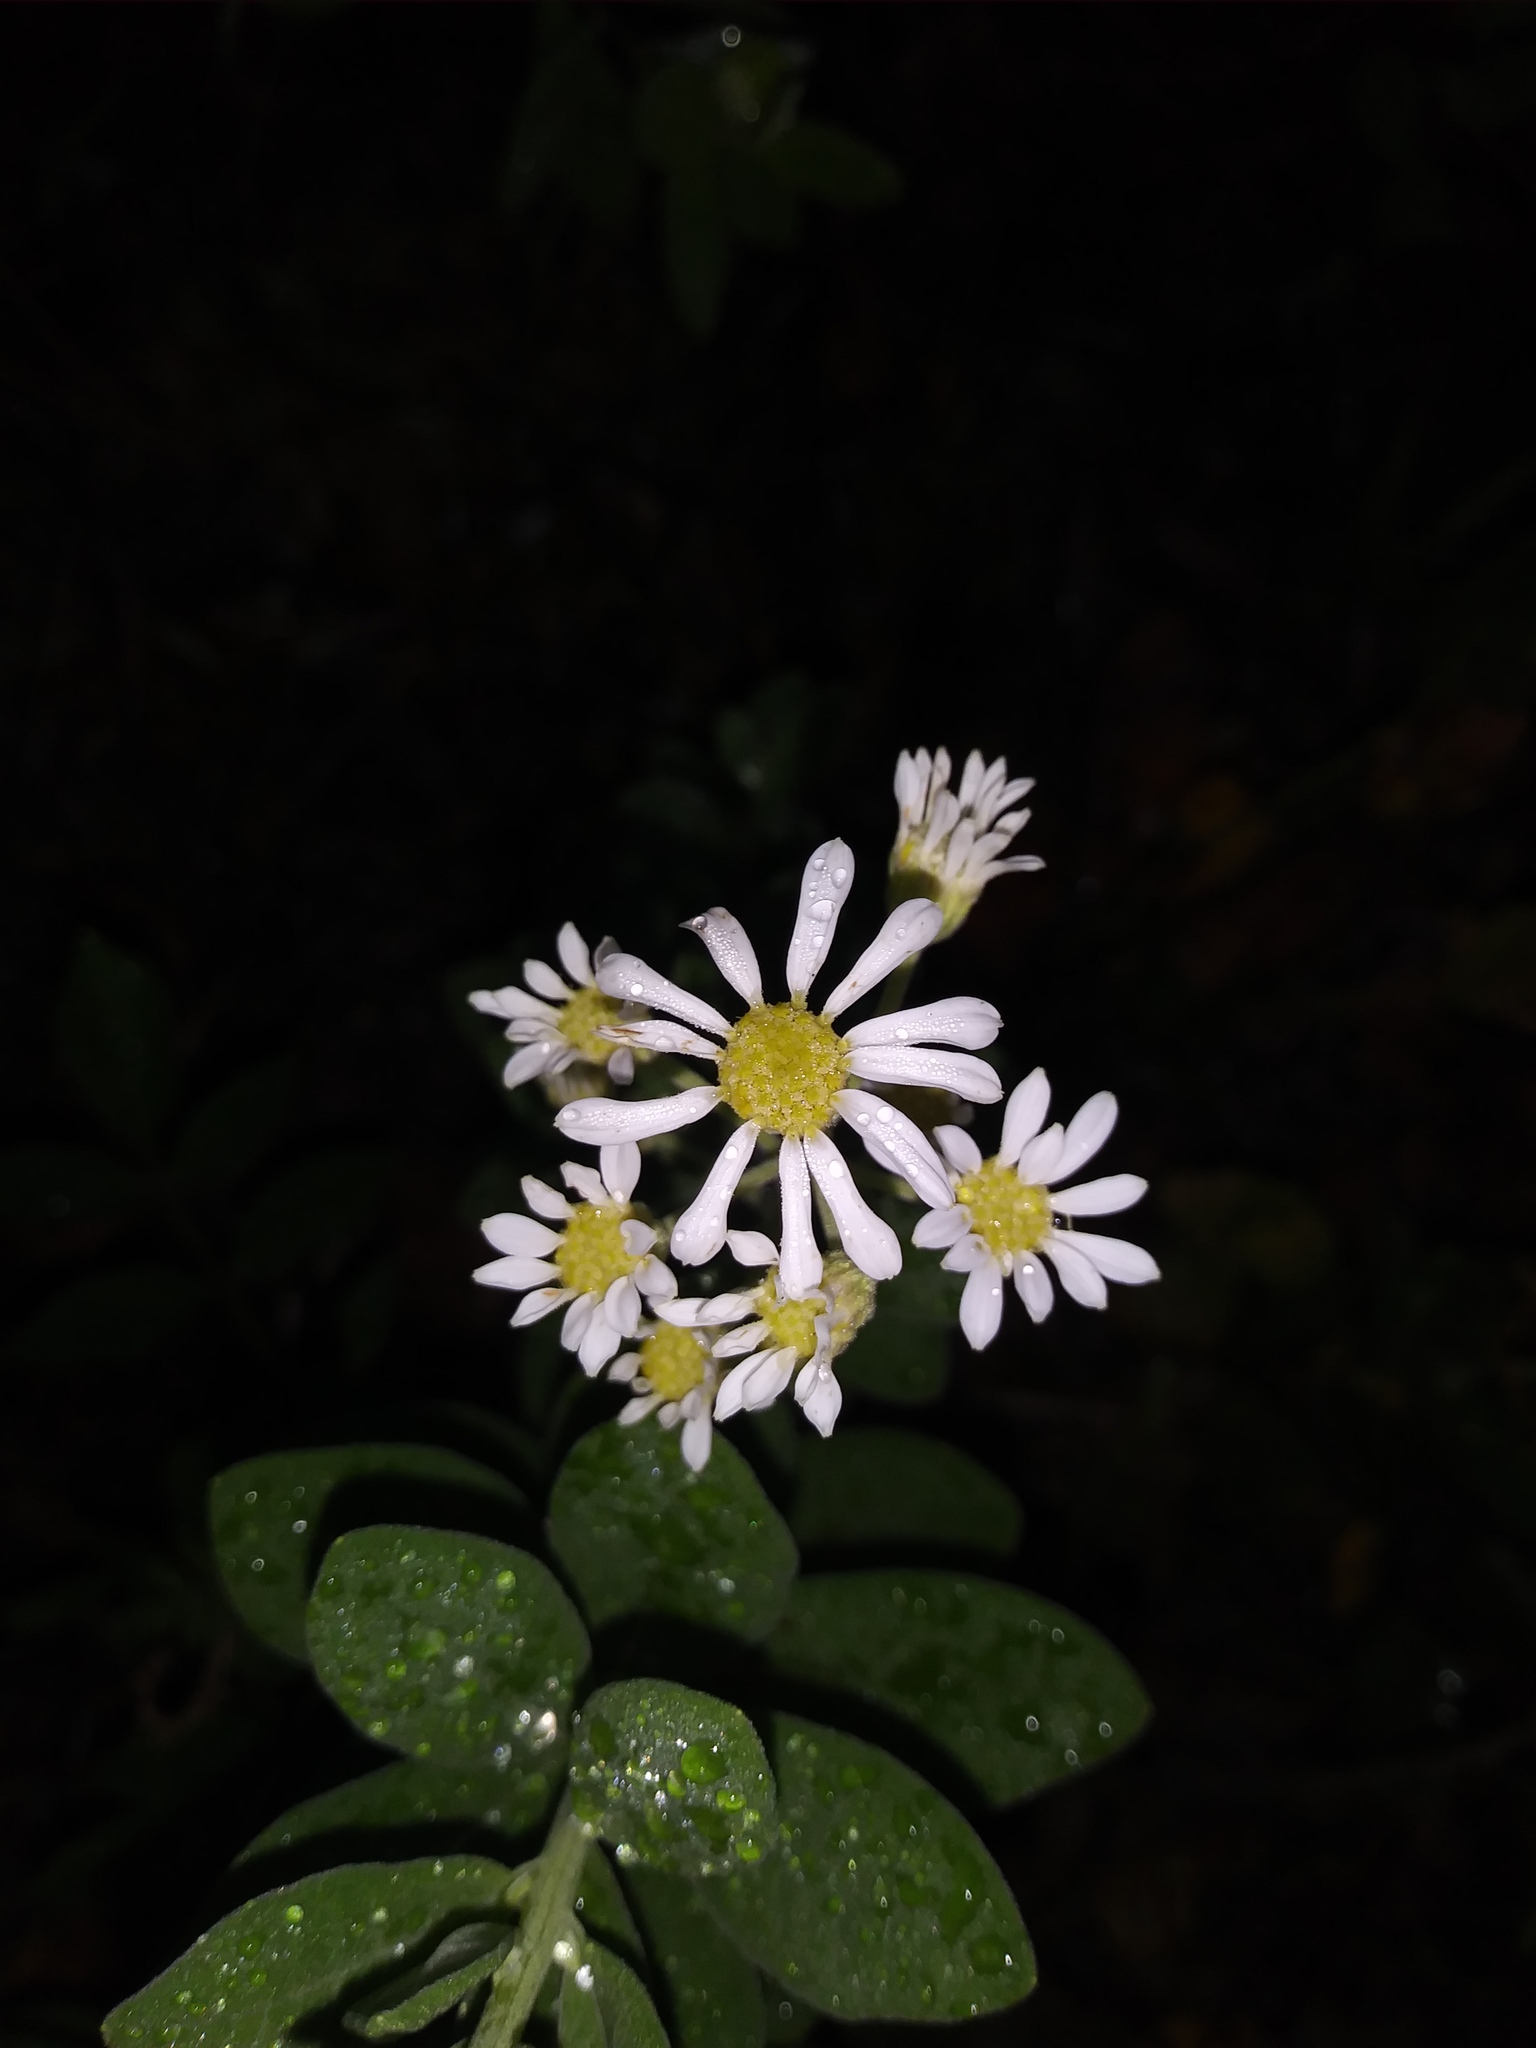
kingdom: Plantae
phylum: Tracheophyta
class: Magnoliopsida
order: Asterales
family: Asteraceae
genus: Oclemena
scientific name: Oclemena reticulata
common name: Pinebarren aster
